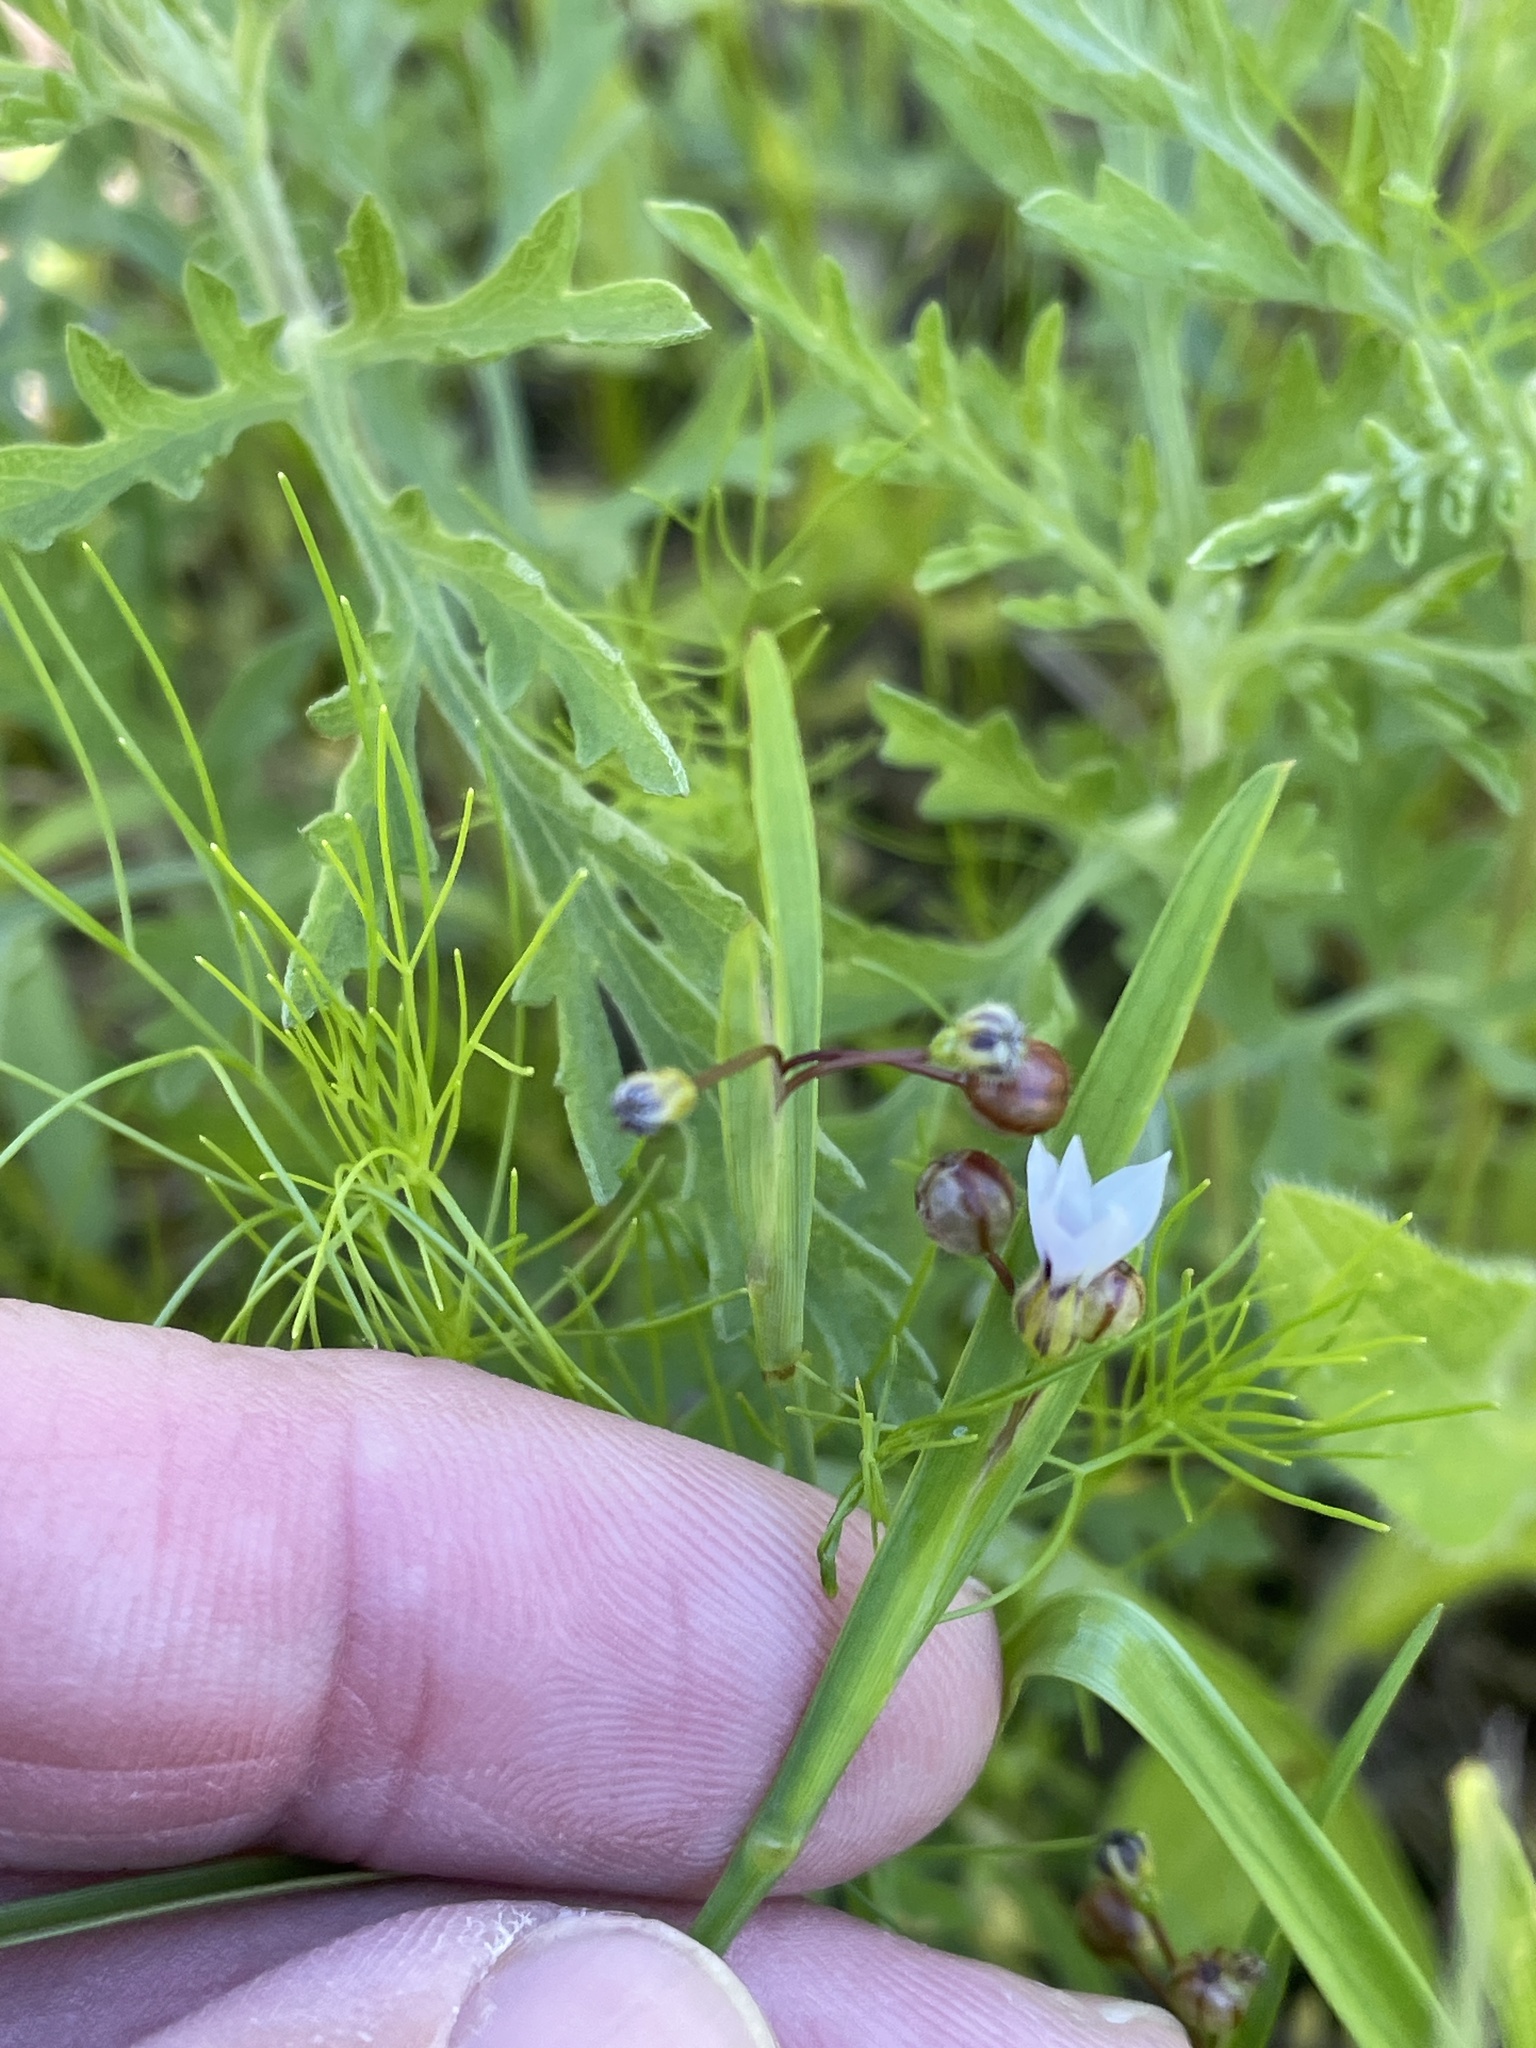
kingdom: Plantae
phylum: Tracheophyta
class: Liliopsida
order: Asparagales
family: Iridaceae
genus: Sisyrinchium
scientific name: Sisyrinchium micranthum
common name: Bermuda pigroot
